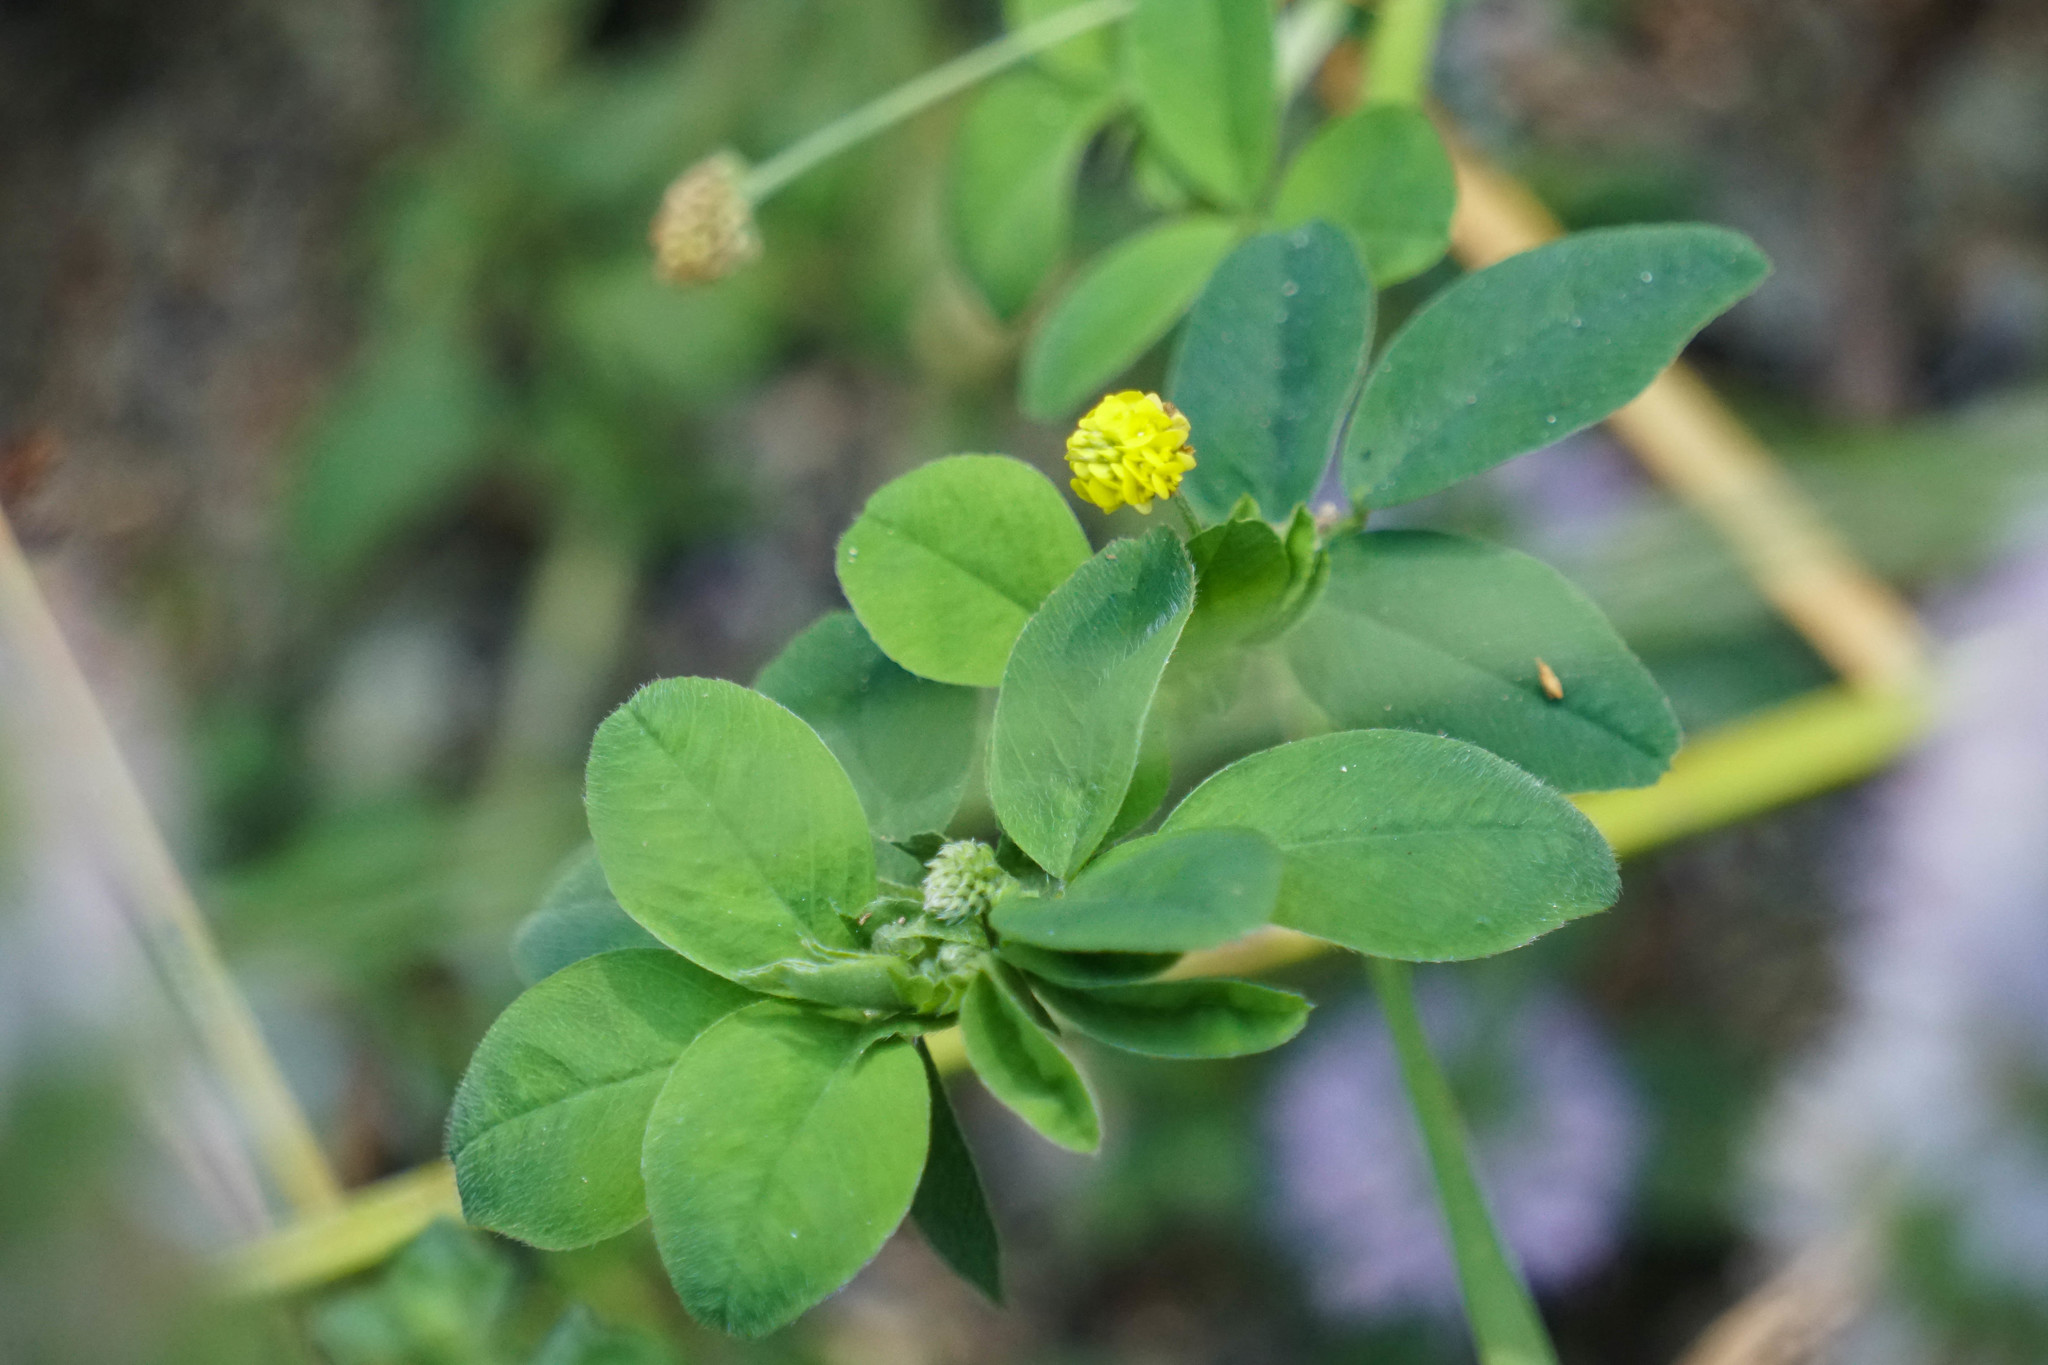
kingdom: Plantae
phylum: Tracheophyta
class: Magnoliopsida
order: Fabales
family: Fabaceae
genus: Medicago
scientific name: Medicago lupulina
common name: Black medick
